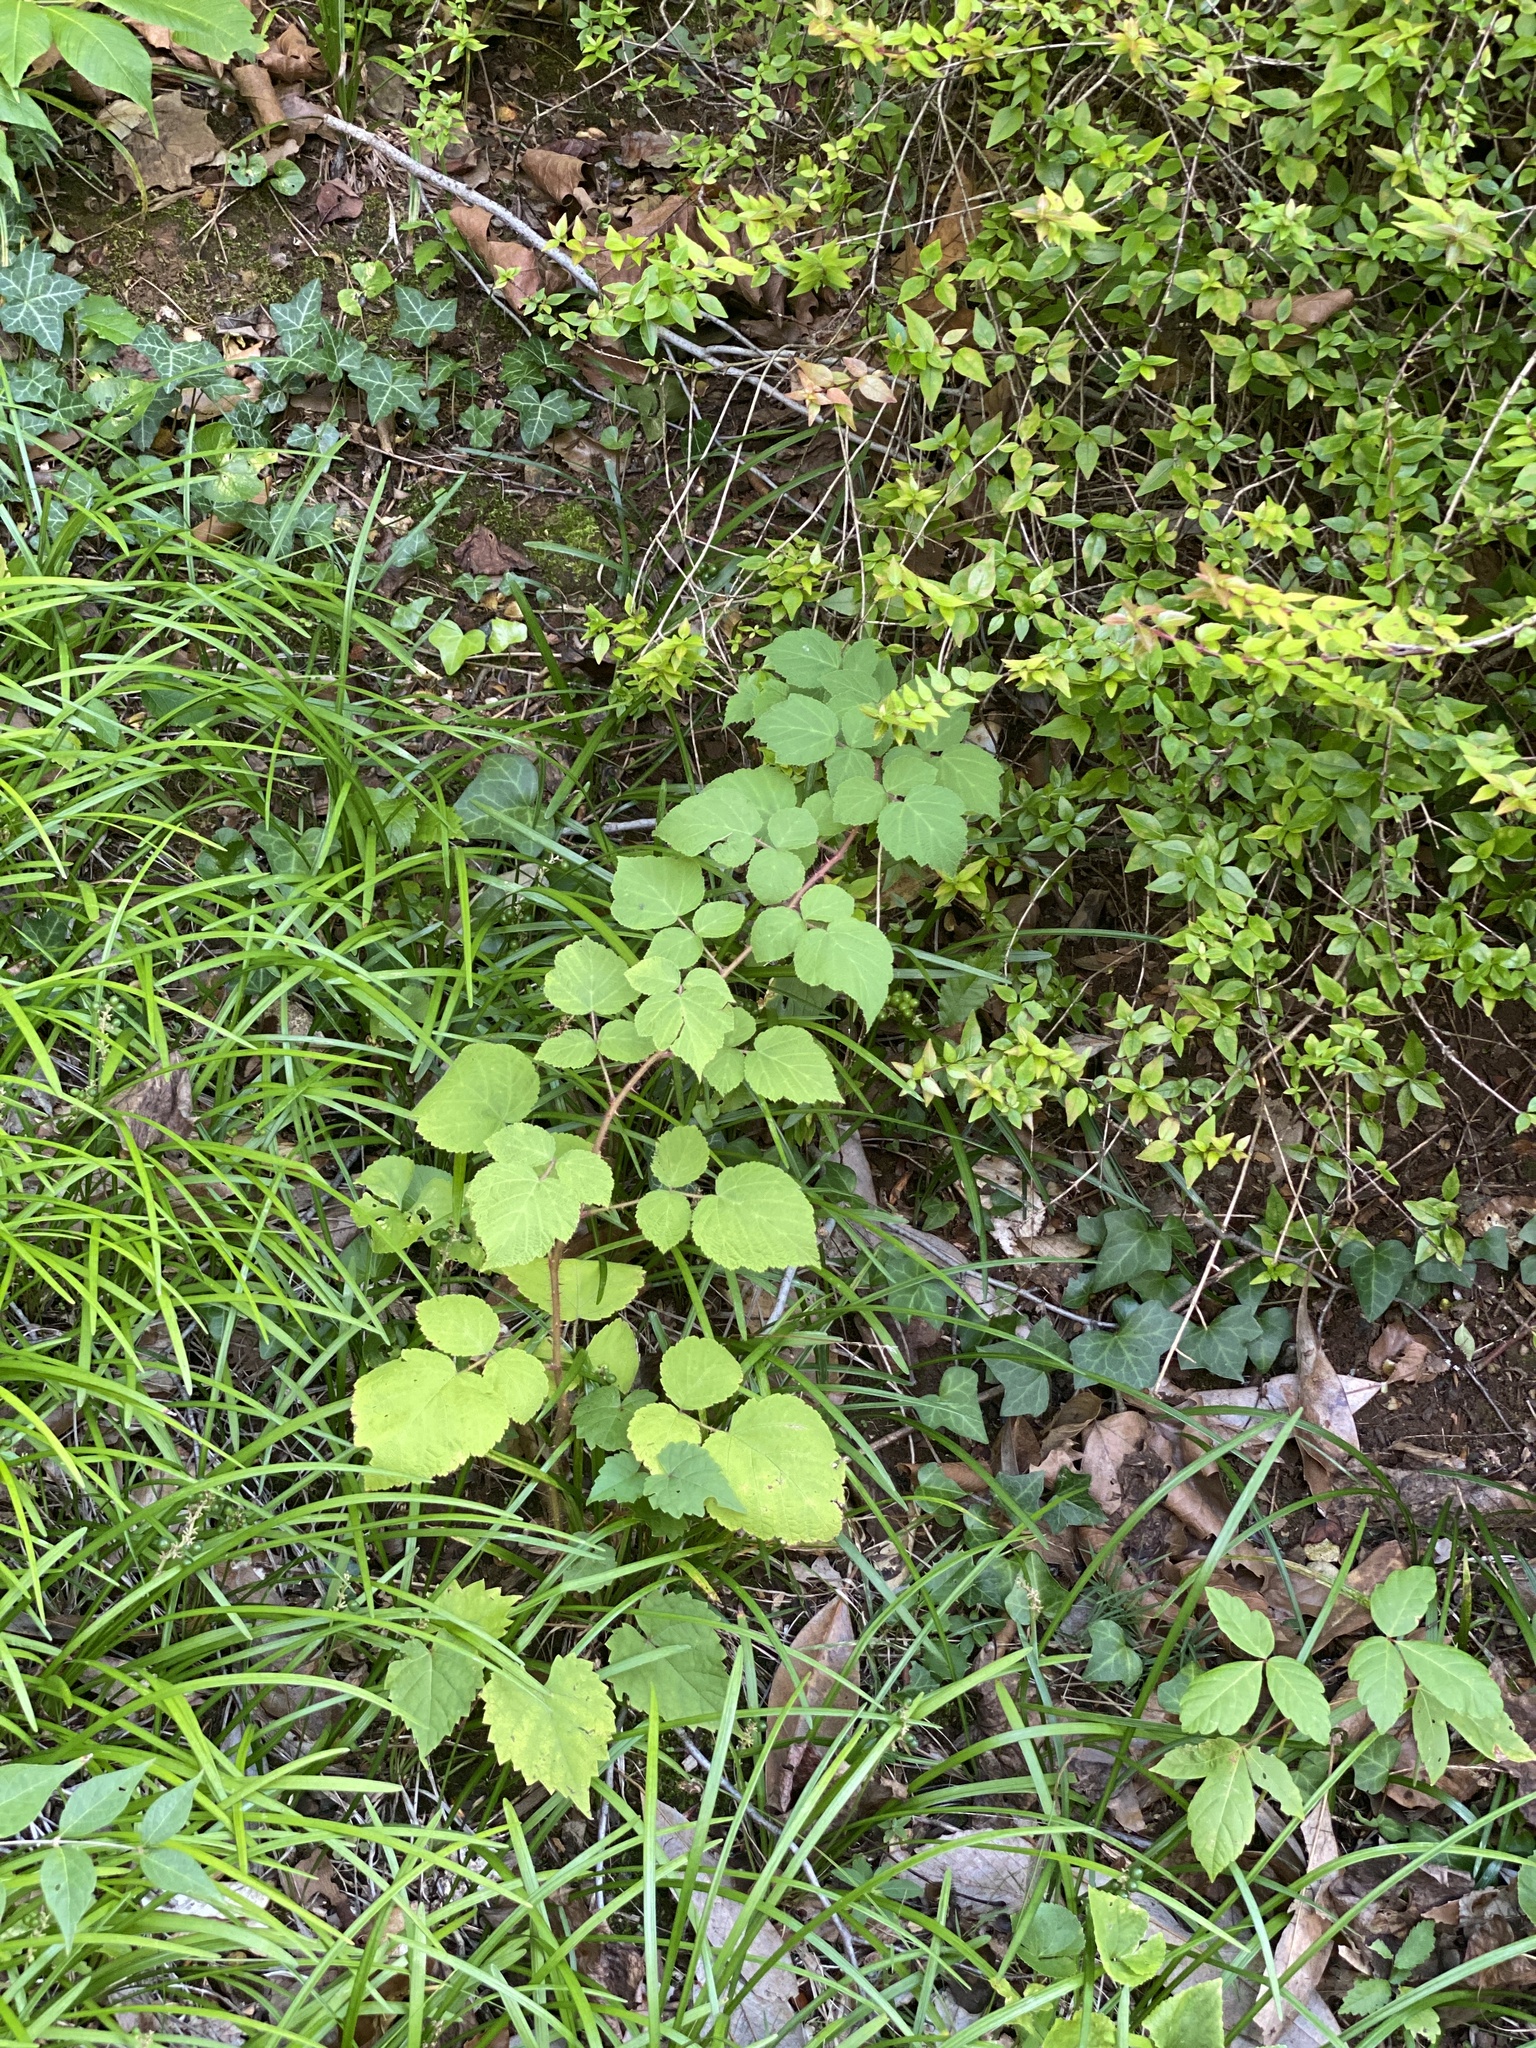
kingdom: Plantae
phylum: Tracheophyta
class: Magnoliopsida
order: Rosales
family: Rosaceae
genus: Rubus
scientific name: Rubus phoenicolasius
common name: Japanese wineberry
